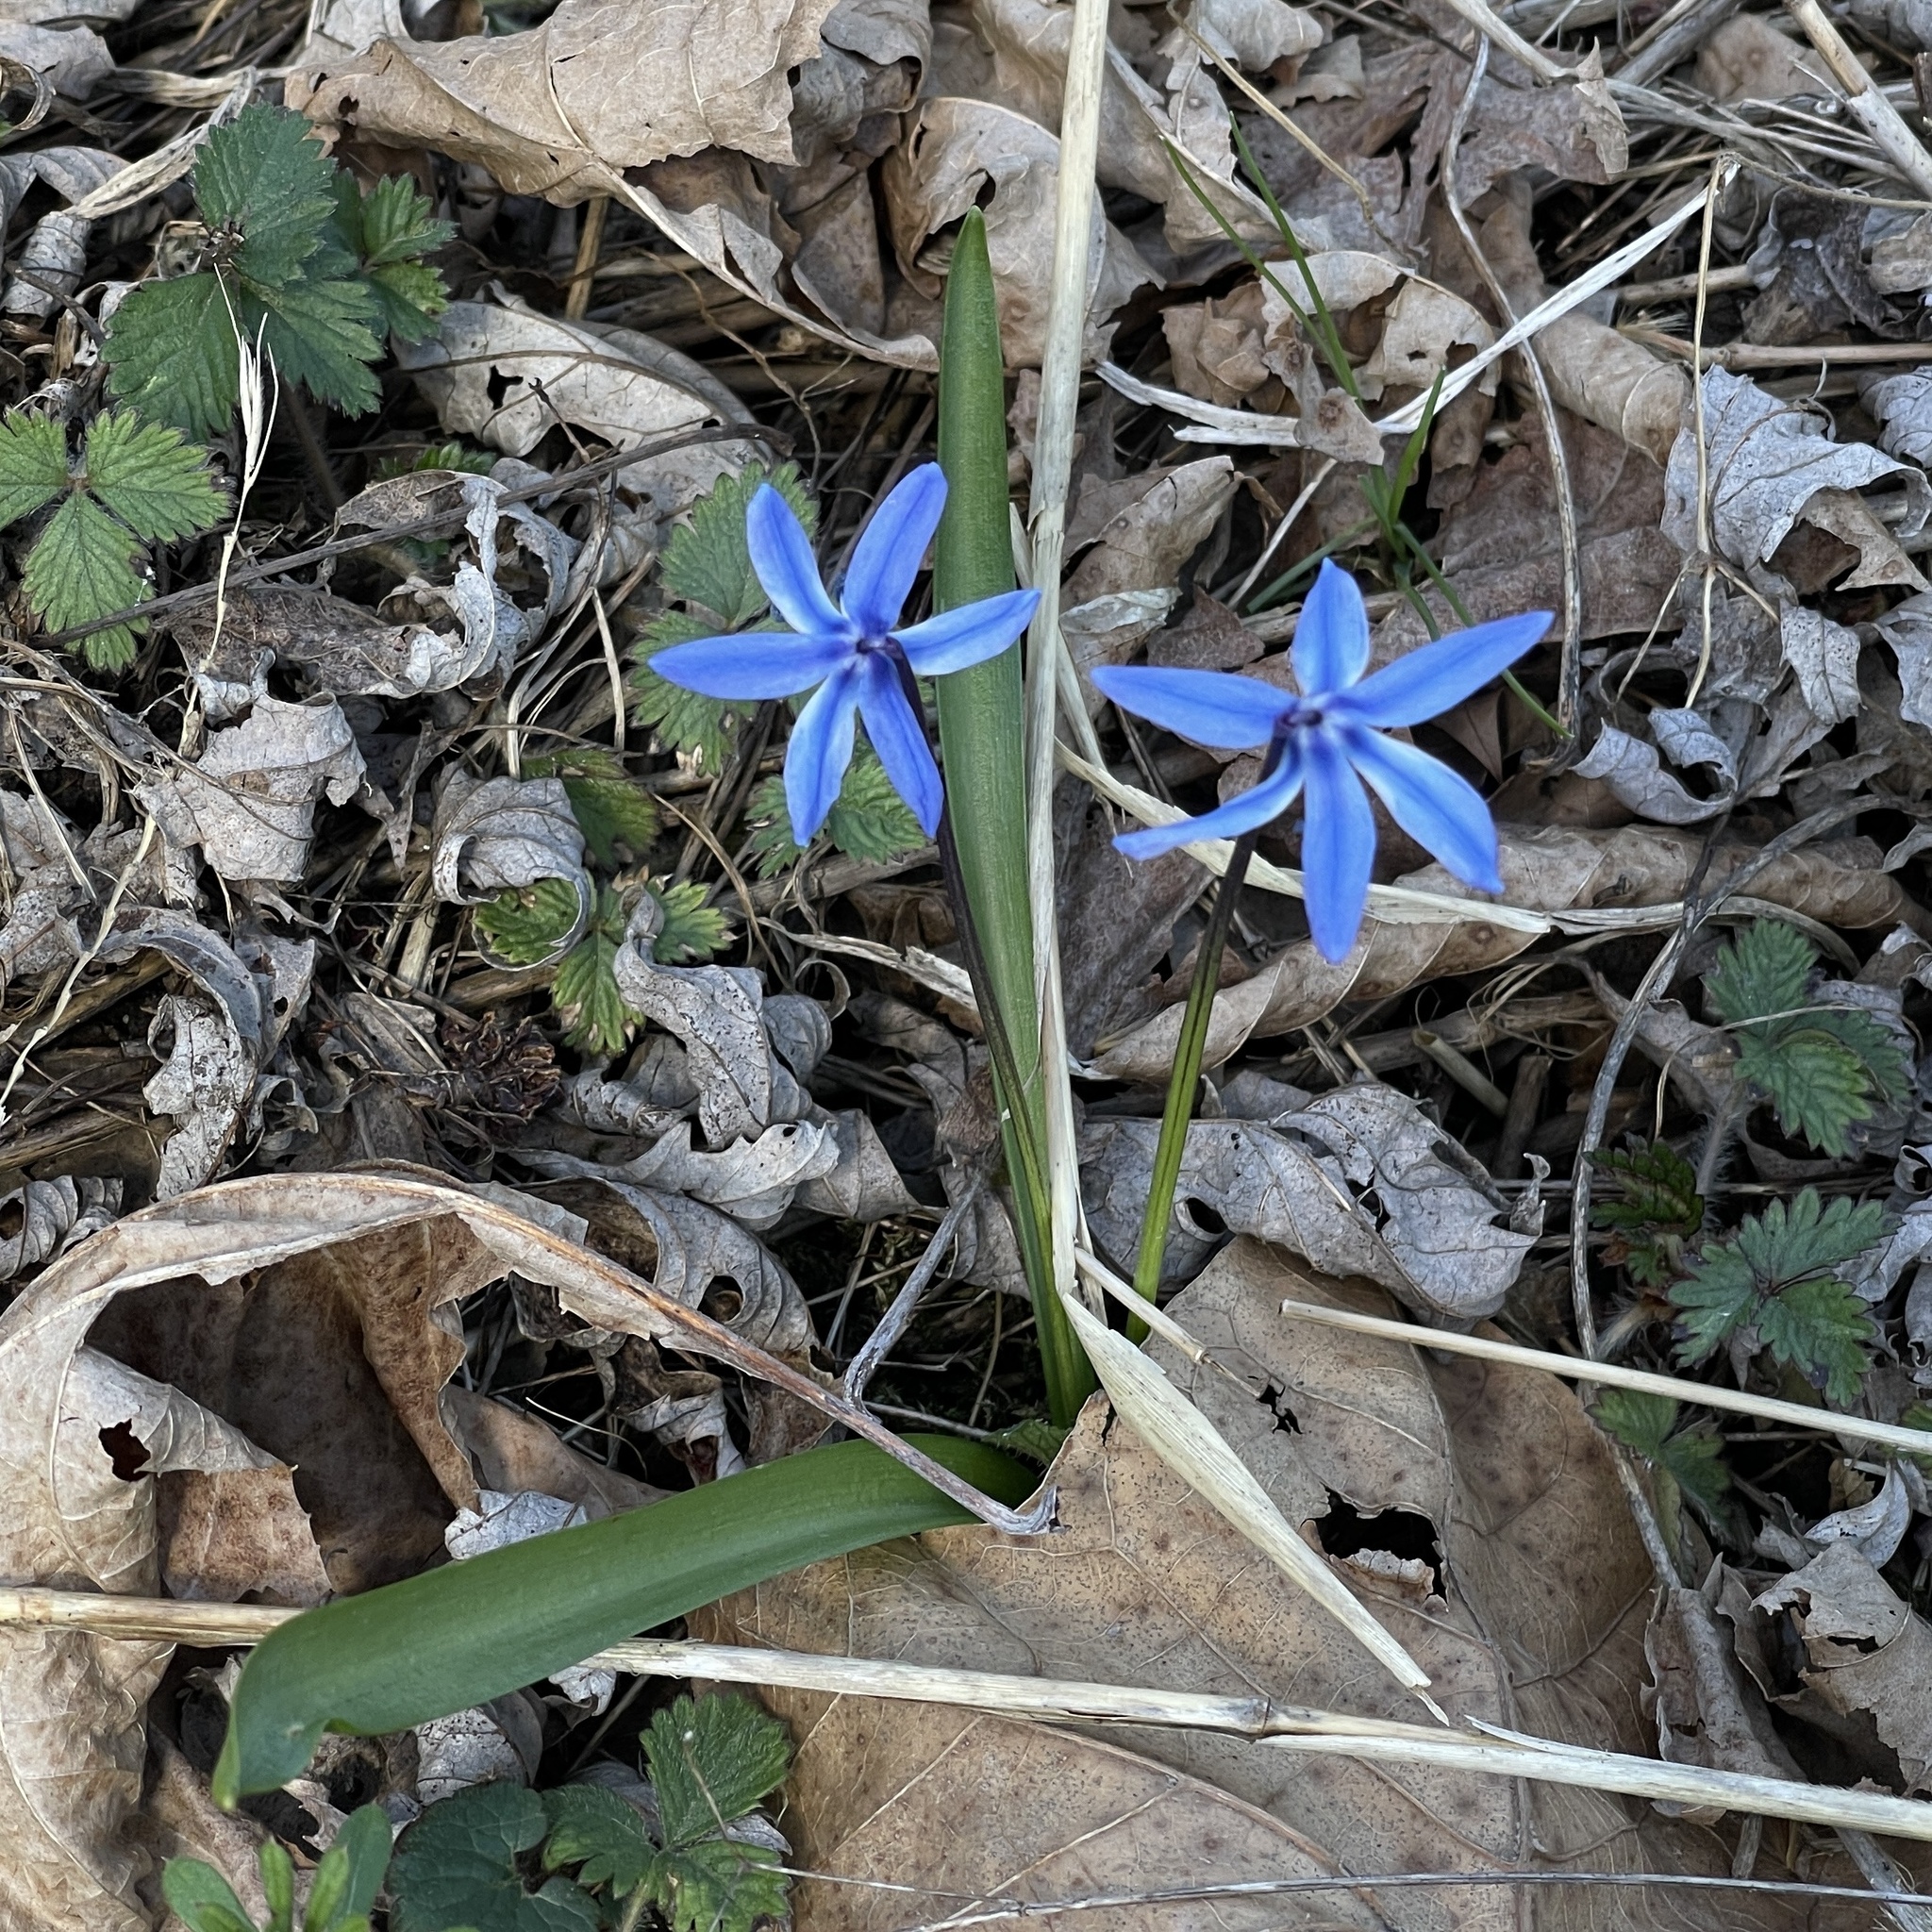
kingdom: Plantae
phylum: Tracheophyta
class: Liliopsida
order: Asparagales
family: Asparagaceae
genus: Scilla
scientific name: Scilla siberica
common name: Siberian squill
